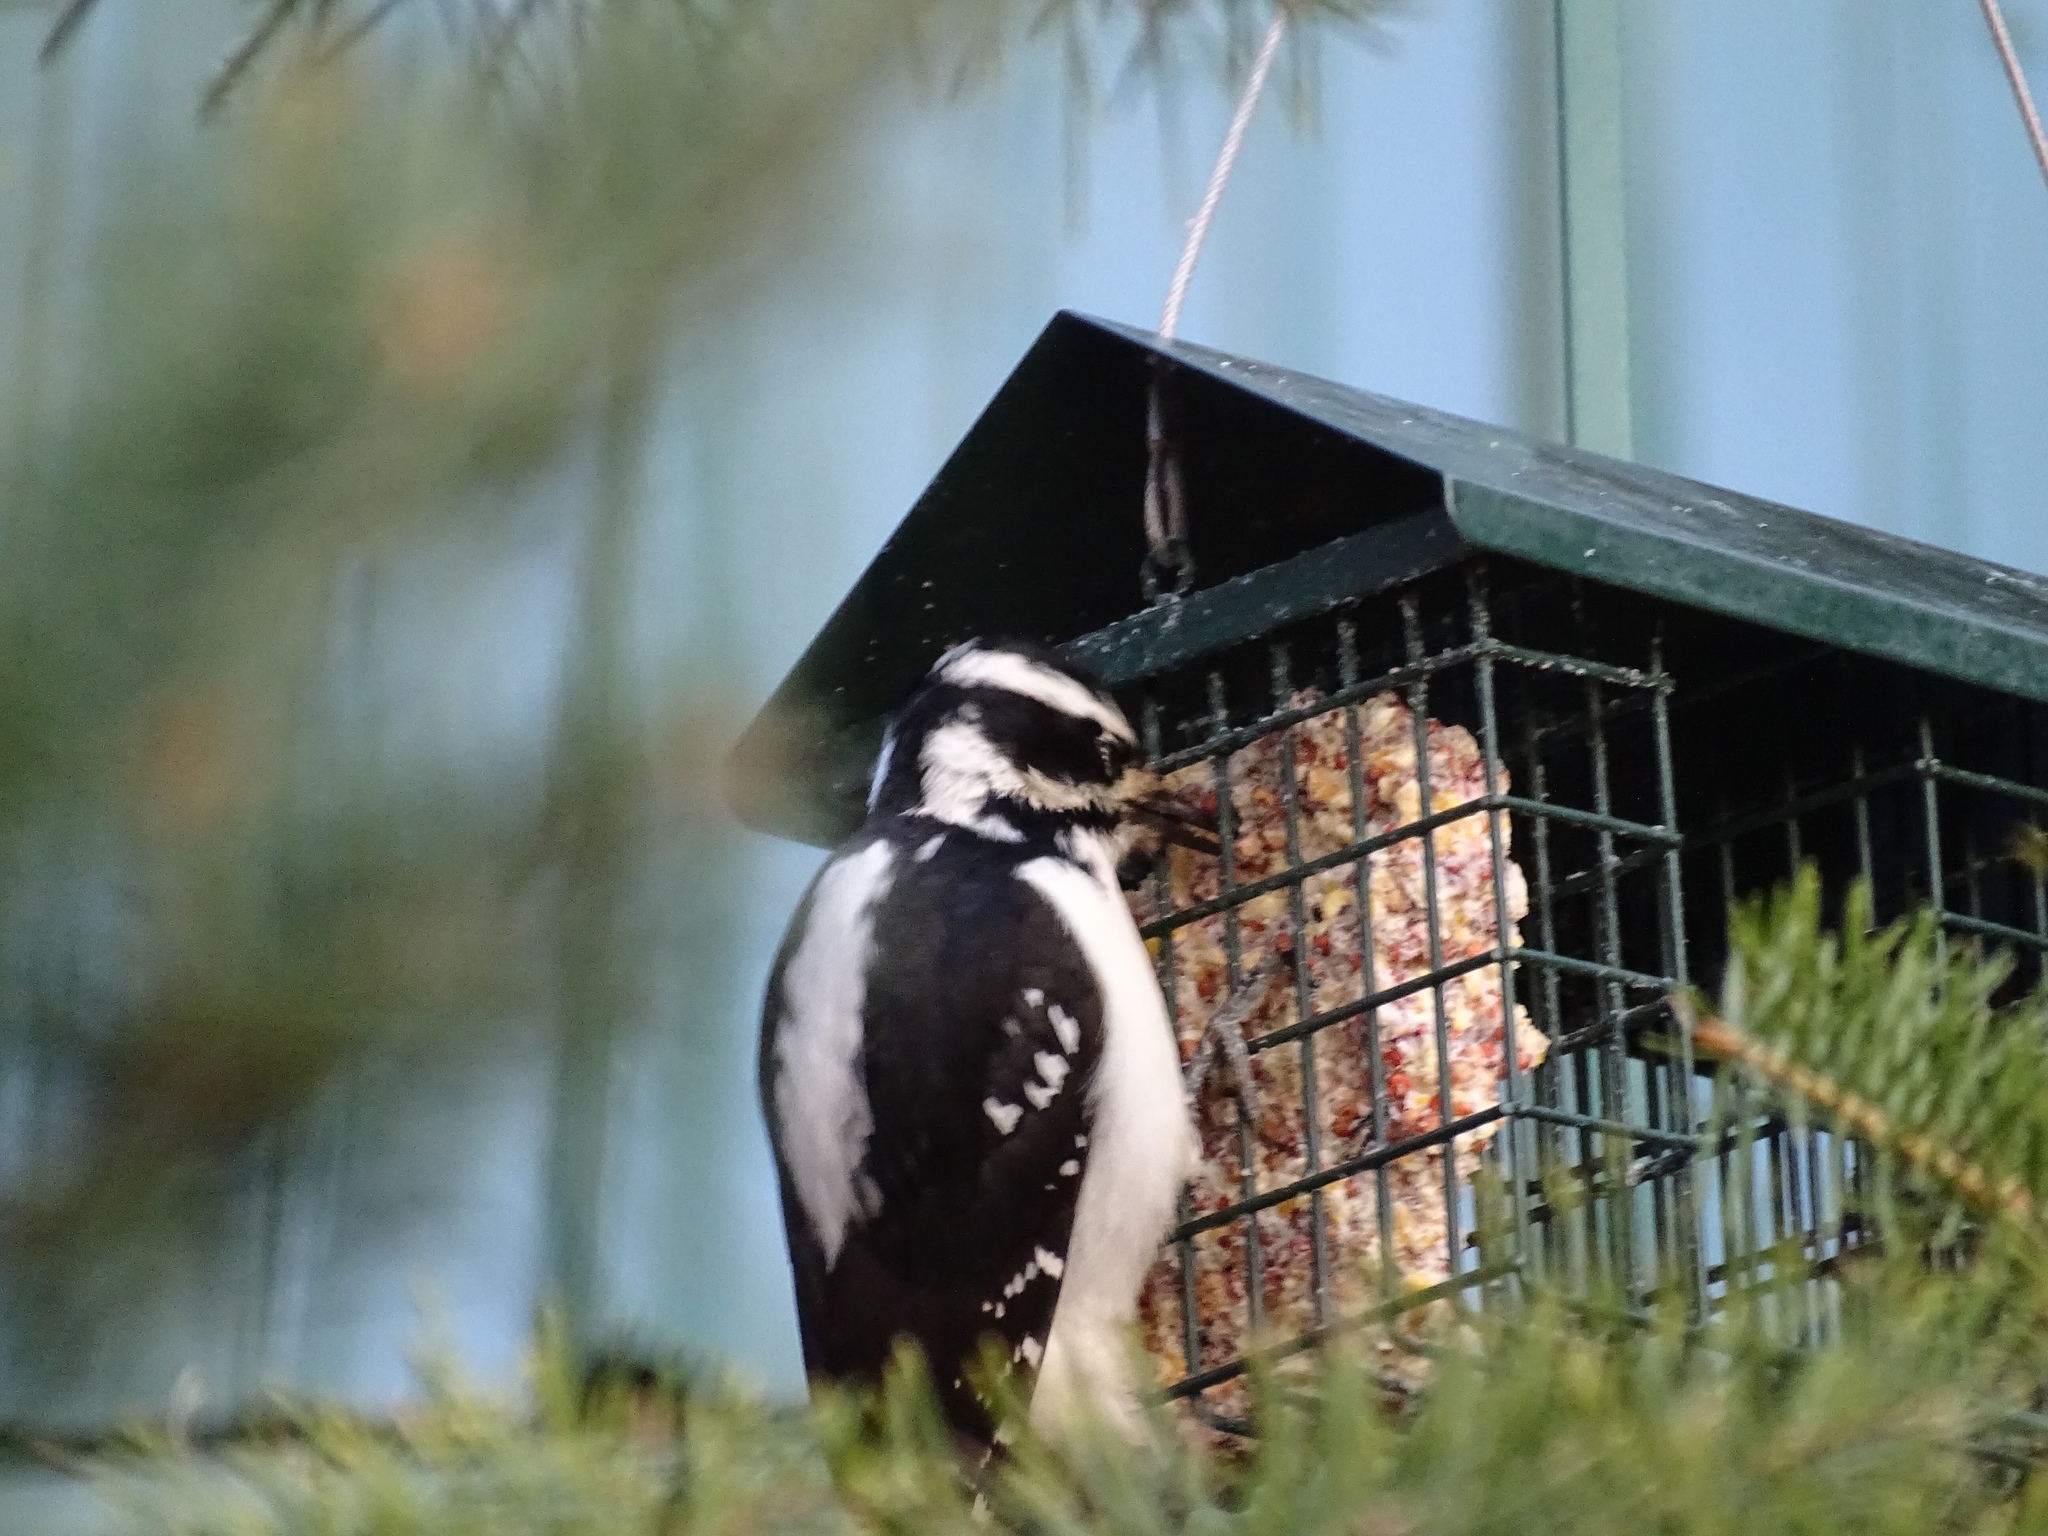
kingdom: Animalia
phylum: Chordata
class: Aves
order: Piciformes
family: Picidae
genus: Leuconotopicus
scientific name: Leuconotopicus villosus
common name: Hairy woodpecker
